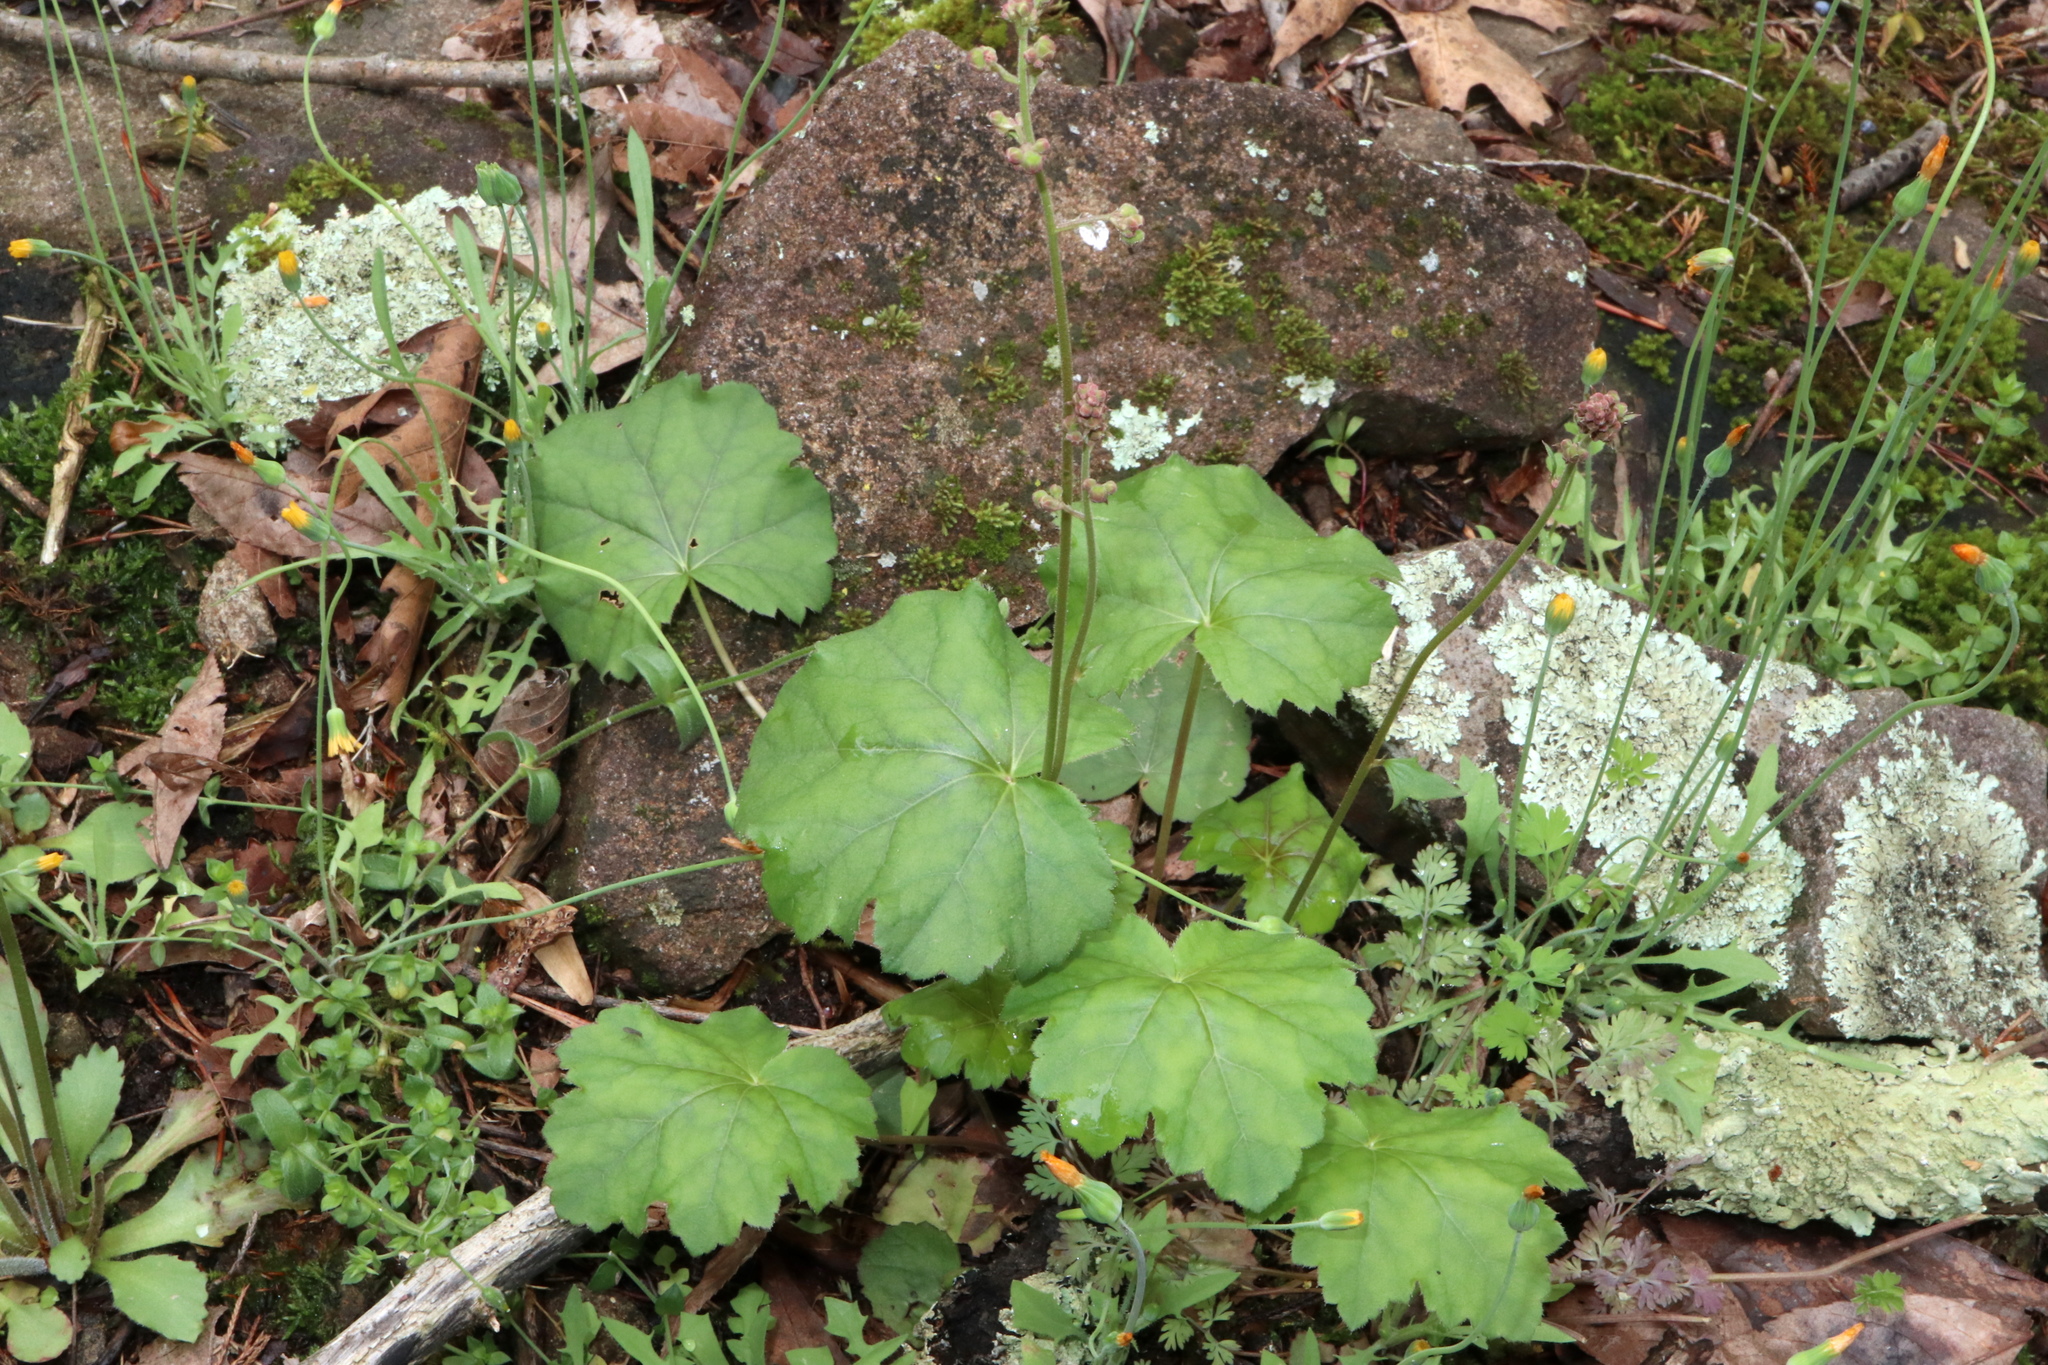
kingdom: Plantae
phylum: Tracheophyta
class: Magnoliopsida
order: Saxifragales
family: Saxifragaceae
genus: Heuchera
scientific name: Heuchera americana
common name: Alumroot
